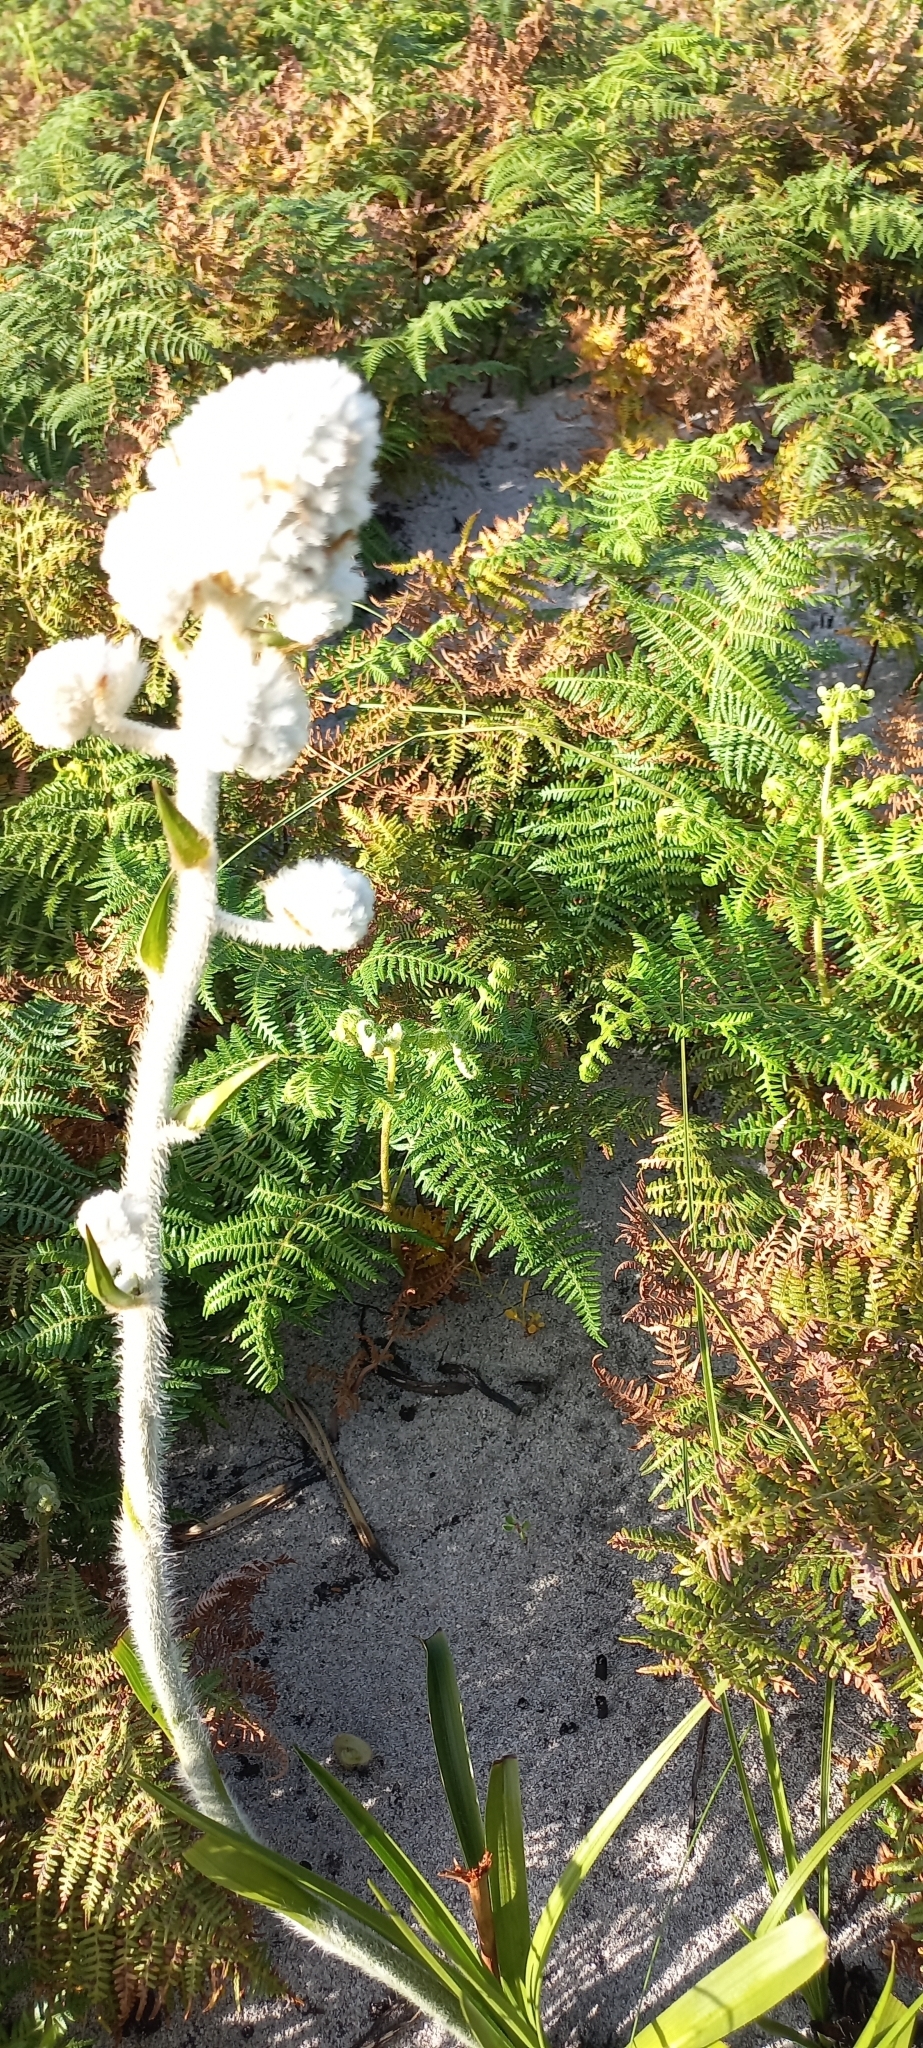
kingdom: Plantae
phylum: Tracheophyta
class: Liliopsida
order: Asparagales
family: Lanariaceae
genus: Lanaria
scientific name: Lanaria lanata
